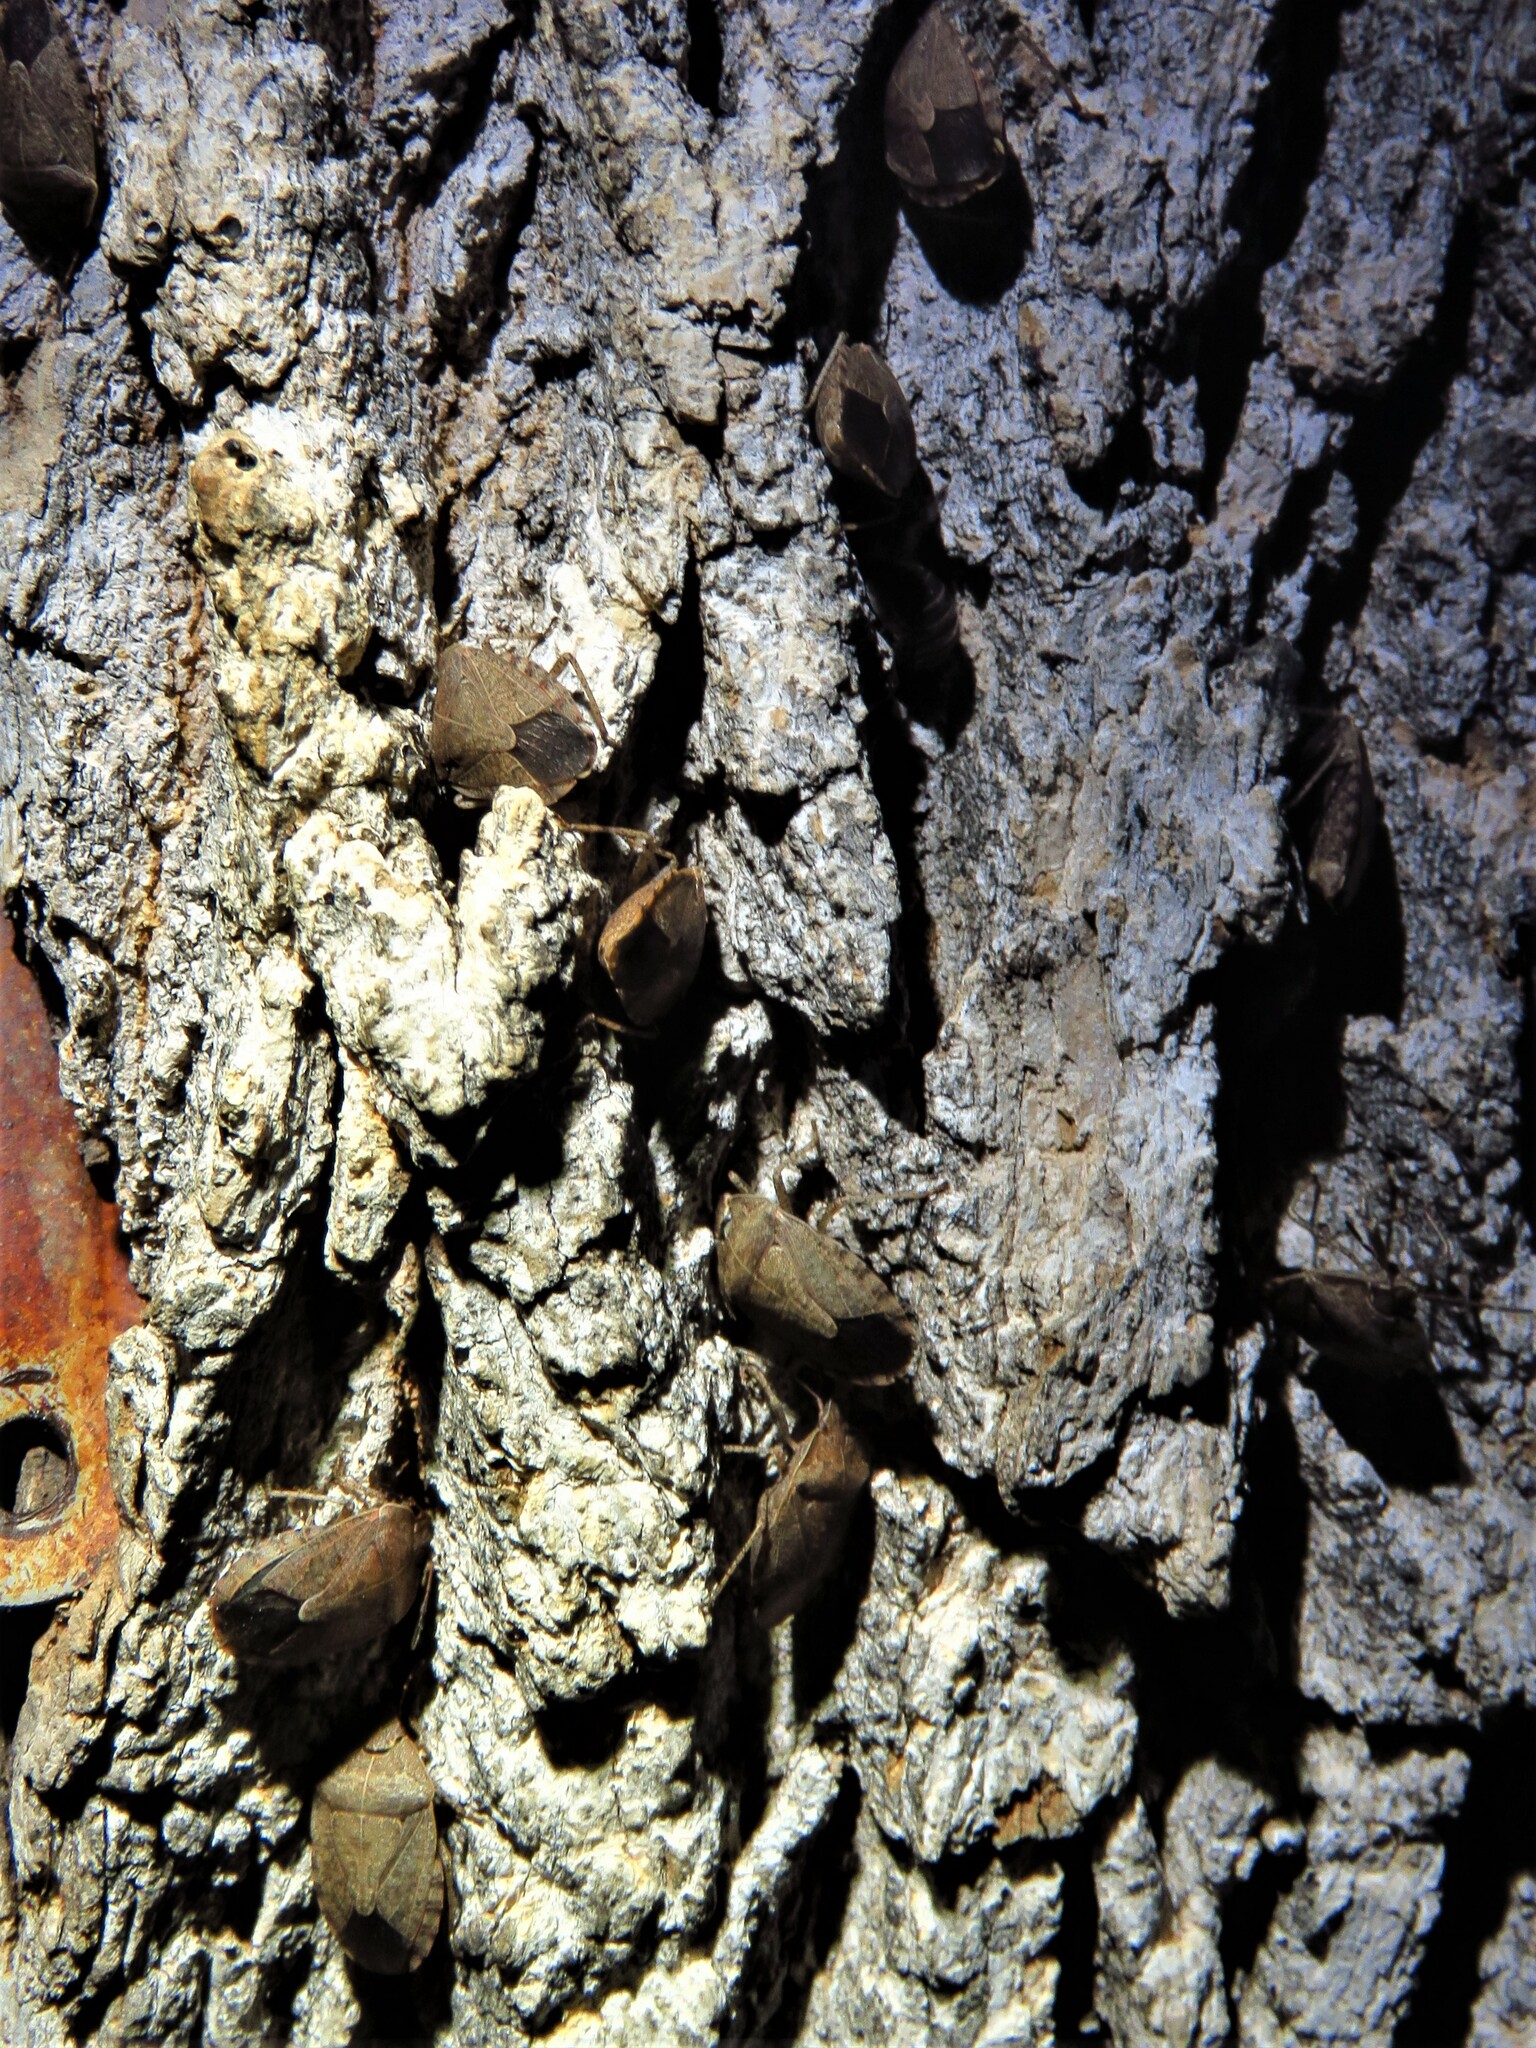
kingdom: Animalia
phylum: Arthropoda
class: Insecta
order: Hemiptera
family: Pentatomidae
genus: Menecles
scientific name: Menecles insertus
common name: Elf shoe stink bug
